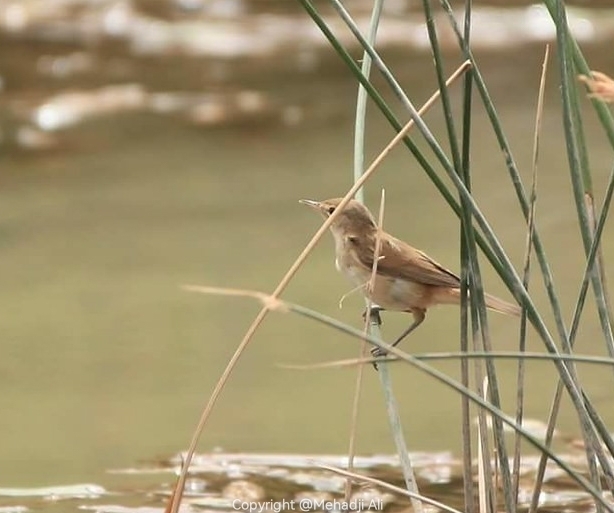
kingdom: Animalia
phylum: Chordata
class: Aves
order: Passeriformes
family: Acrocephalidae
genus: Acrocephalus
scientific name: Acrocephalus scirpaceus
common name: Eurasian reed warbler
